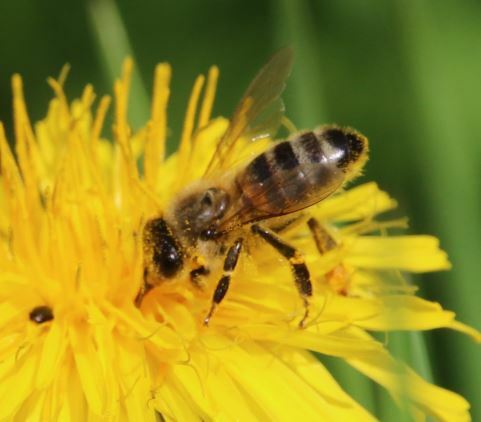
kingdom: Animalia
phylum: Arthropoda
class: Insecta
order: Hymenoptera
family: Apidae
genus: Apis
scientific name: Apis mellifera
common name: Honey bee
